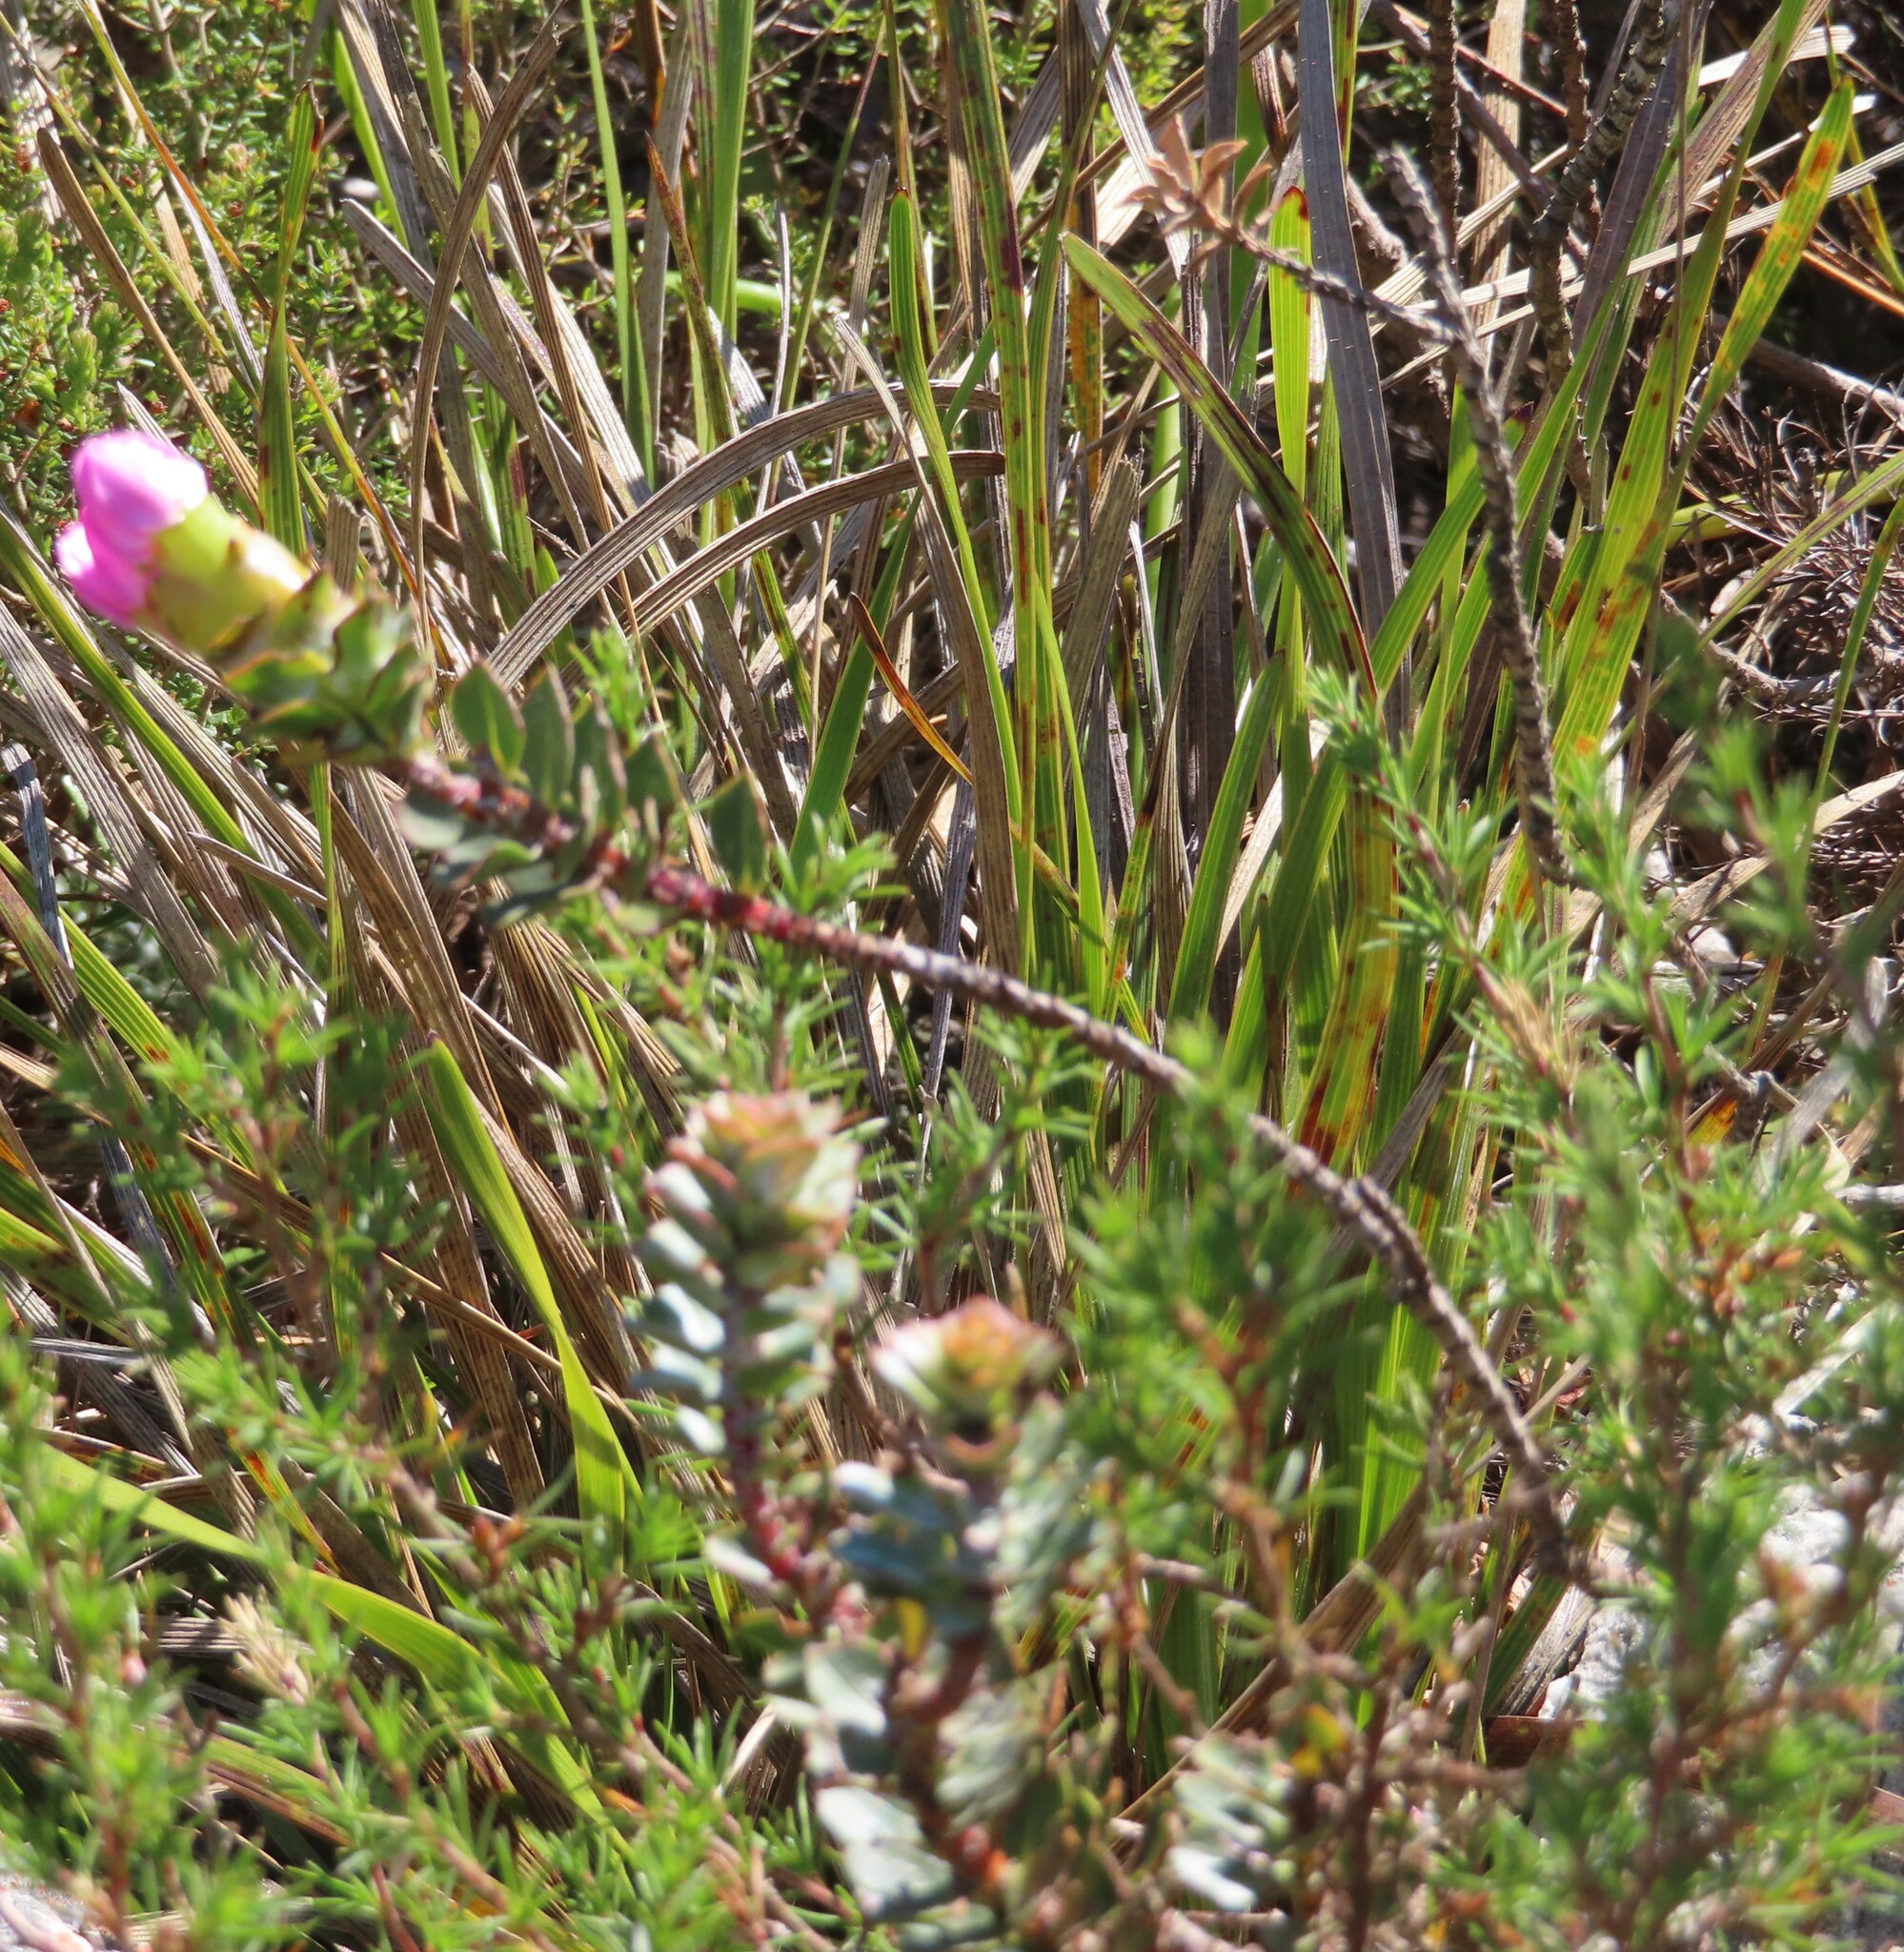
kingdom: Plantae
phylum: Tracheophyta
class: Magnoliopsida
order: Myrtales
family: Penaeaceae
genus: Saltera
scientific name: Saltera sarcocolla
